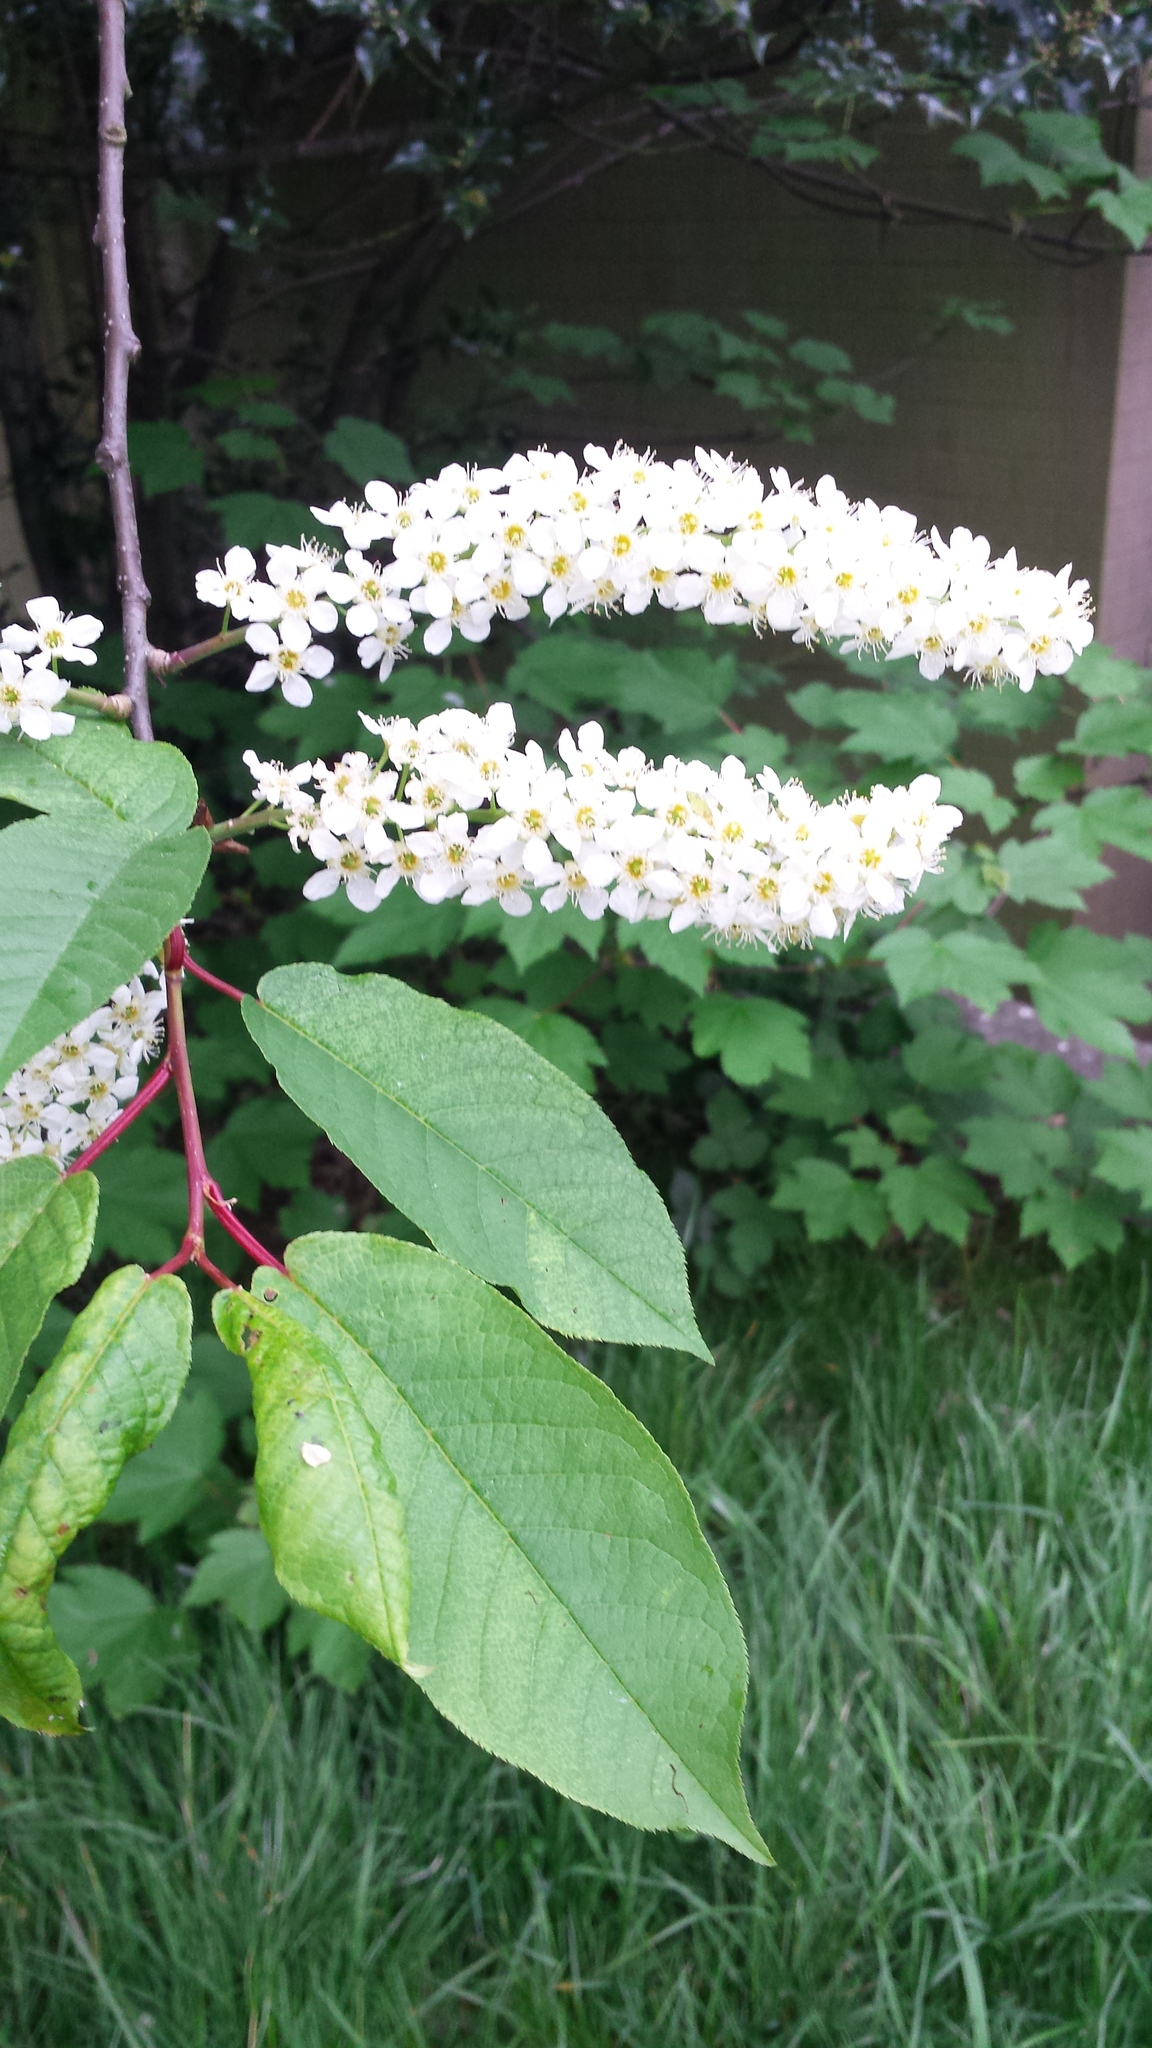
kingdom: Plantae
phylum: Tracheophyta
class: Magnoliopsida
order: Rosales
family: Rosaceae
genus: Prunus
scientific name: Prunus padus
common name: Bird cherry
